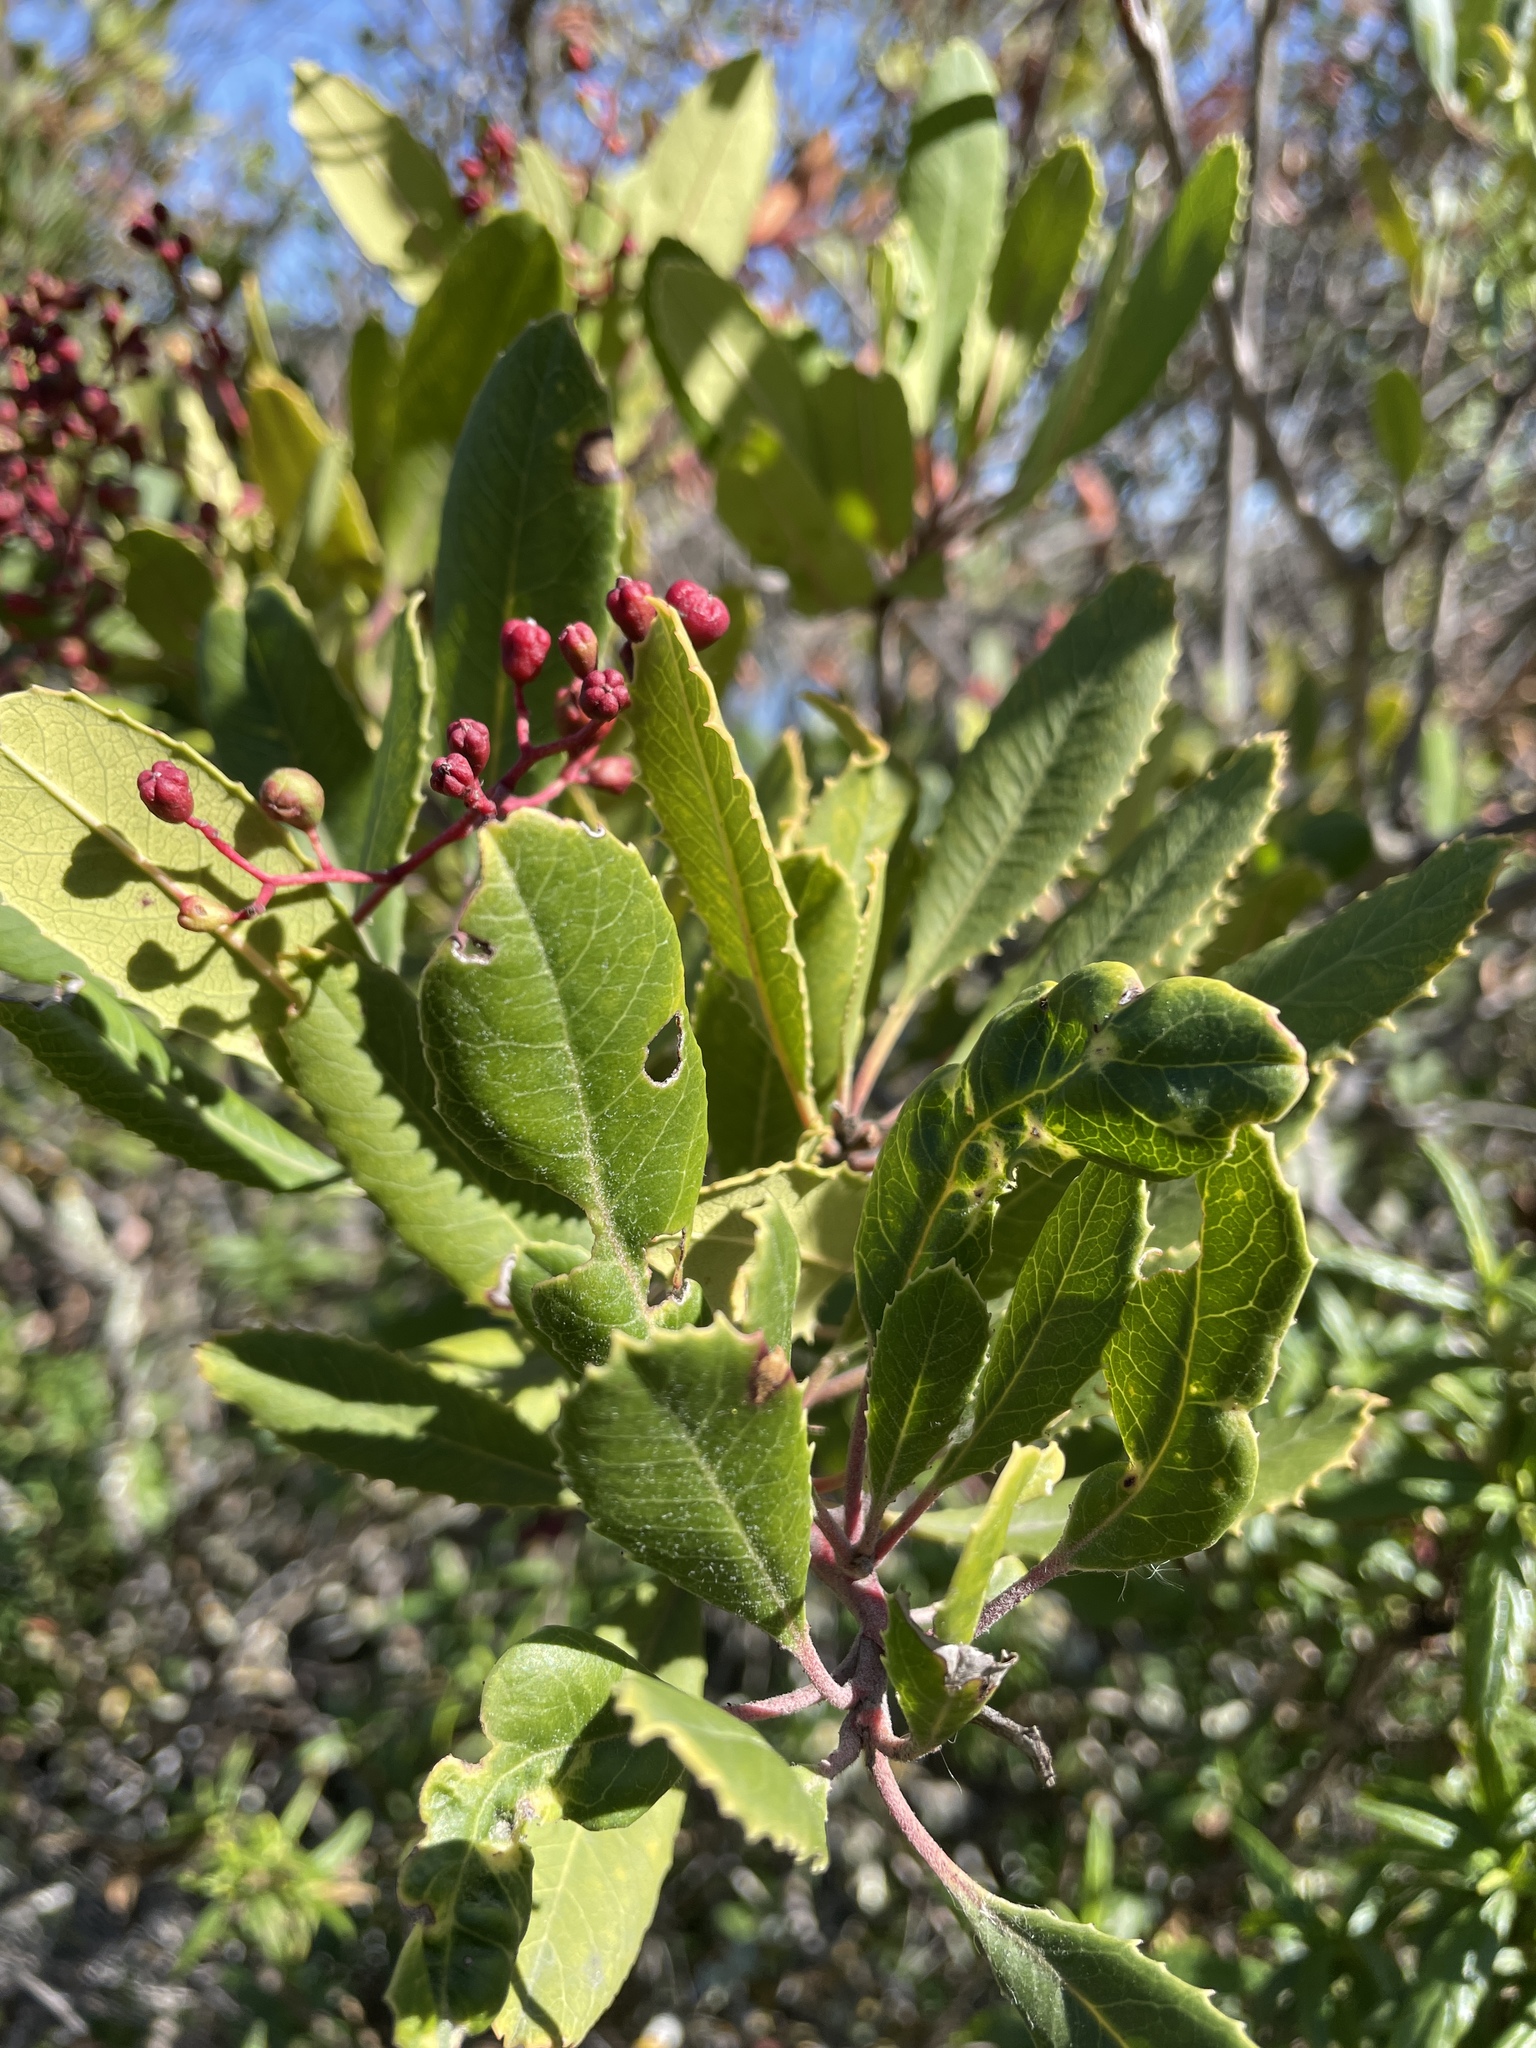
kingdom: Plantae
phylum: Tracheophyta
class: Magnoliopsida
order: Rosales
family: Rosaceae
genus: Heteromeles
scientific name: Heteromeles arbutifolia
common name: California-holly
